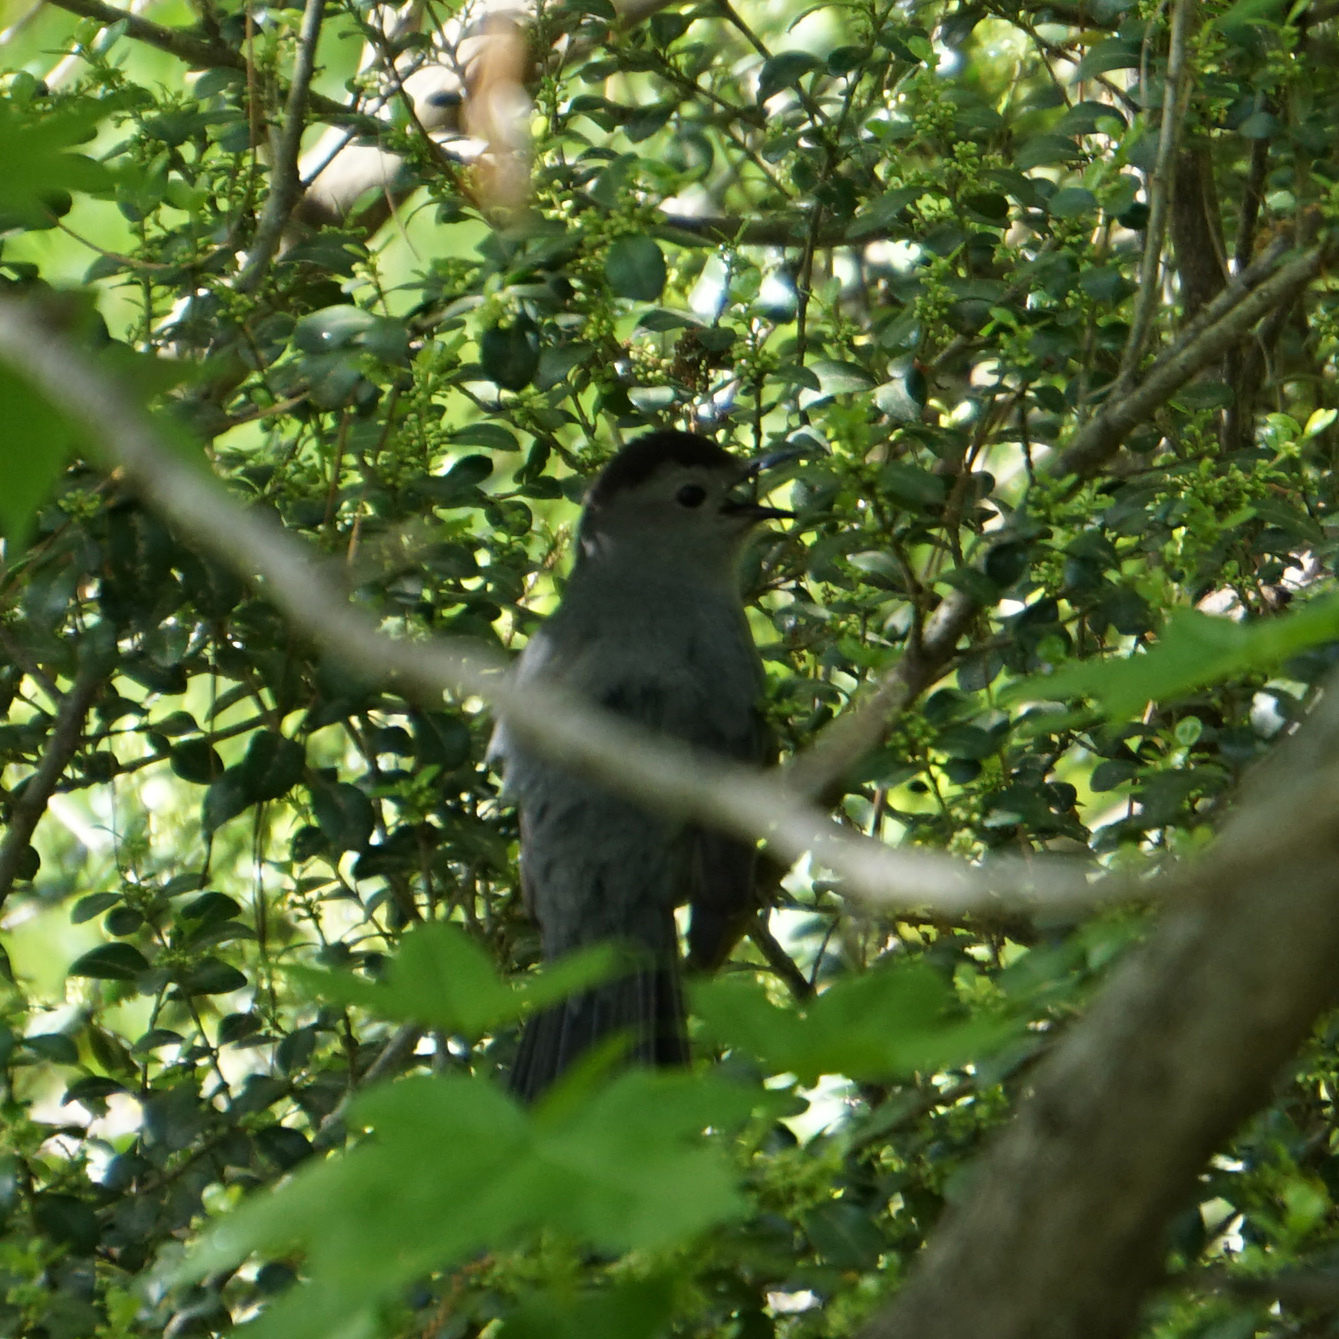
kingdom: Animalia
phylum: Chordata
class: Aves
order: Passeriformes
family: Mimidae
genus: Dumetella
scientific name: Dumetella carolinensis
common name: Gray catbird
